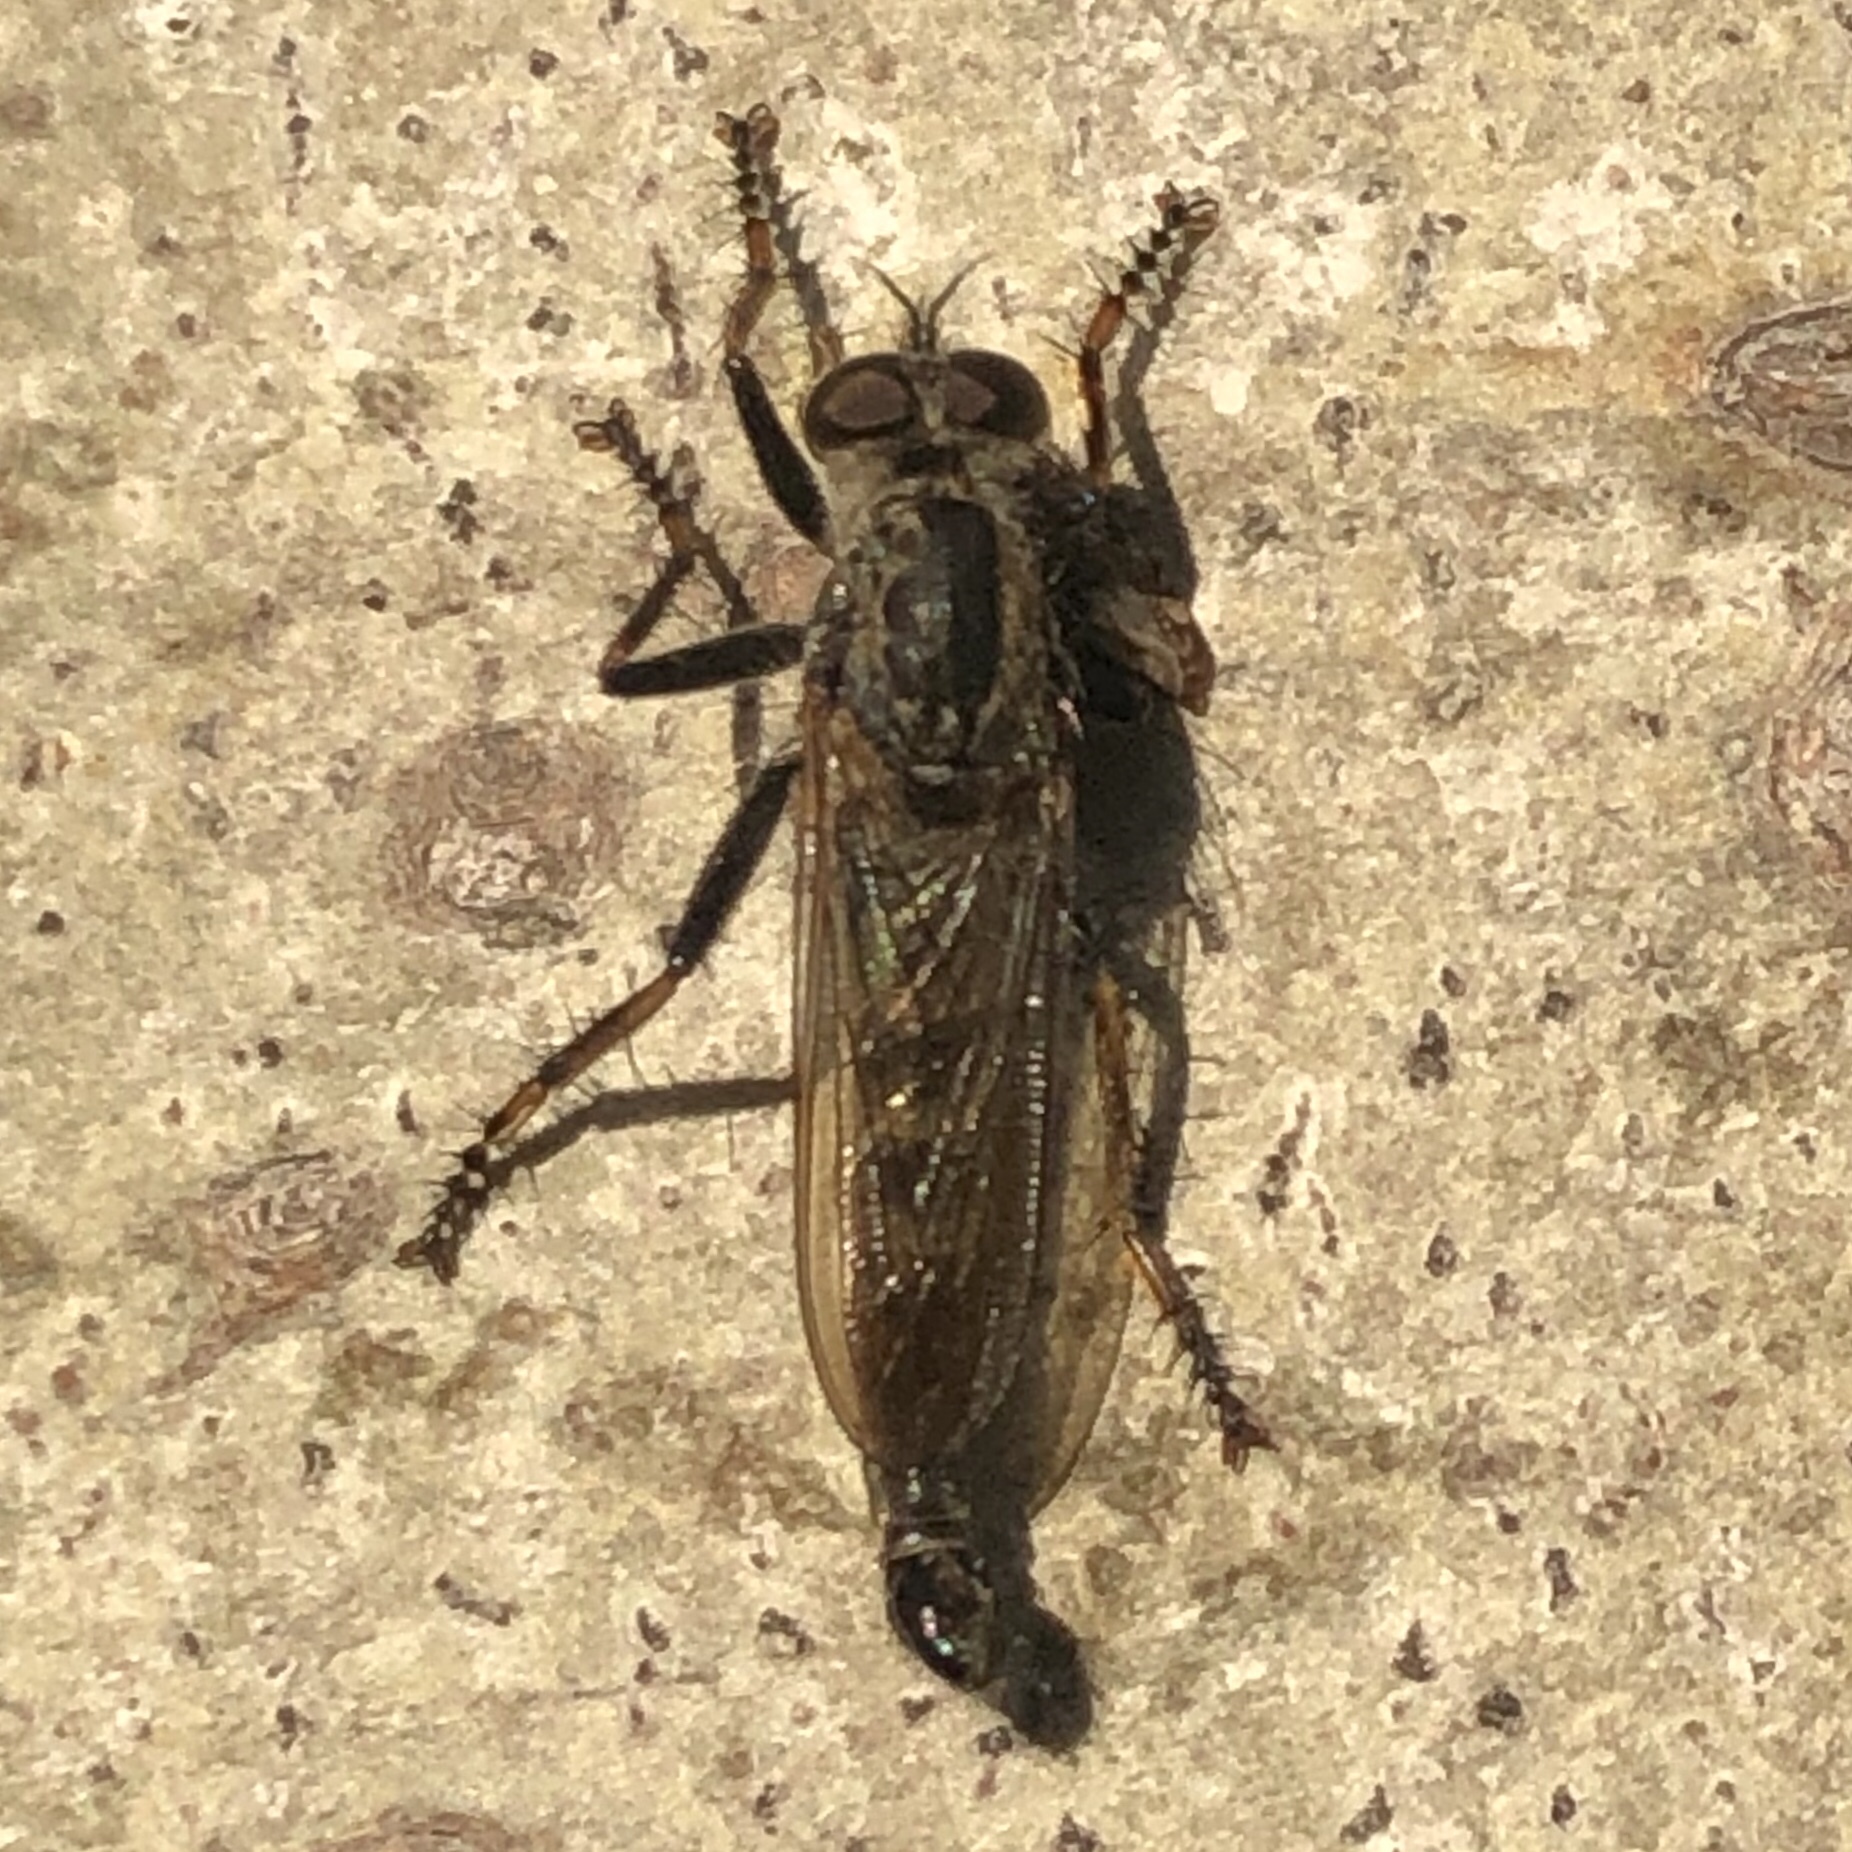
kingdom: Animalia
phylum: Arthropoda
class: Insecta
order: Diptera
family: Asilidae
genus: Machimus
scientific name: Machimus sadyates
